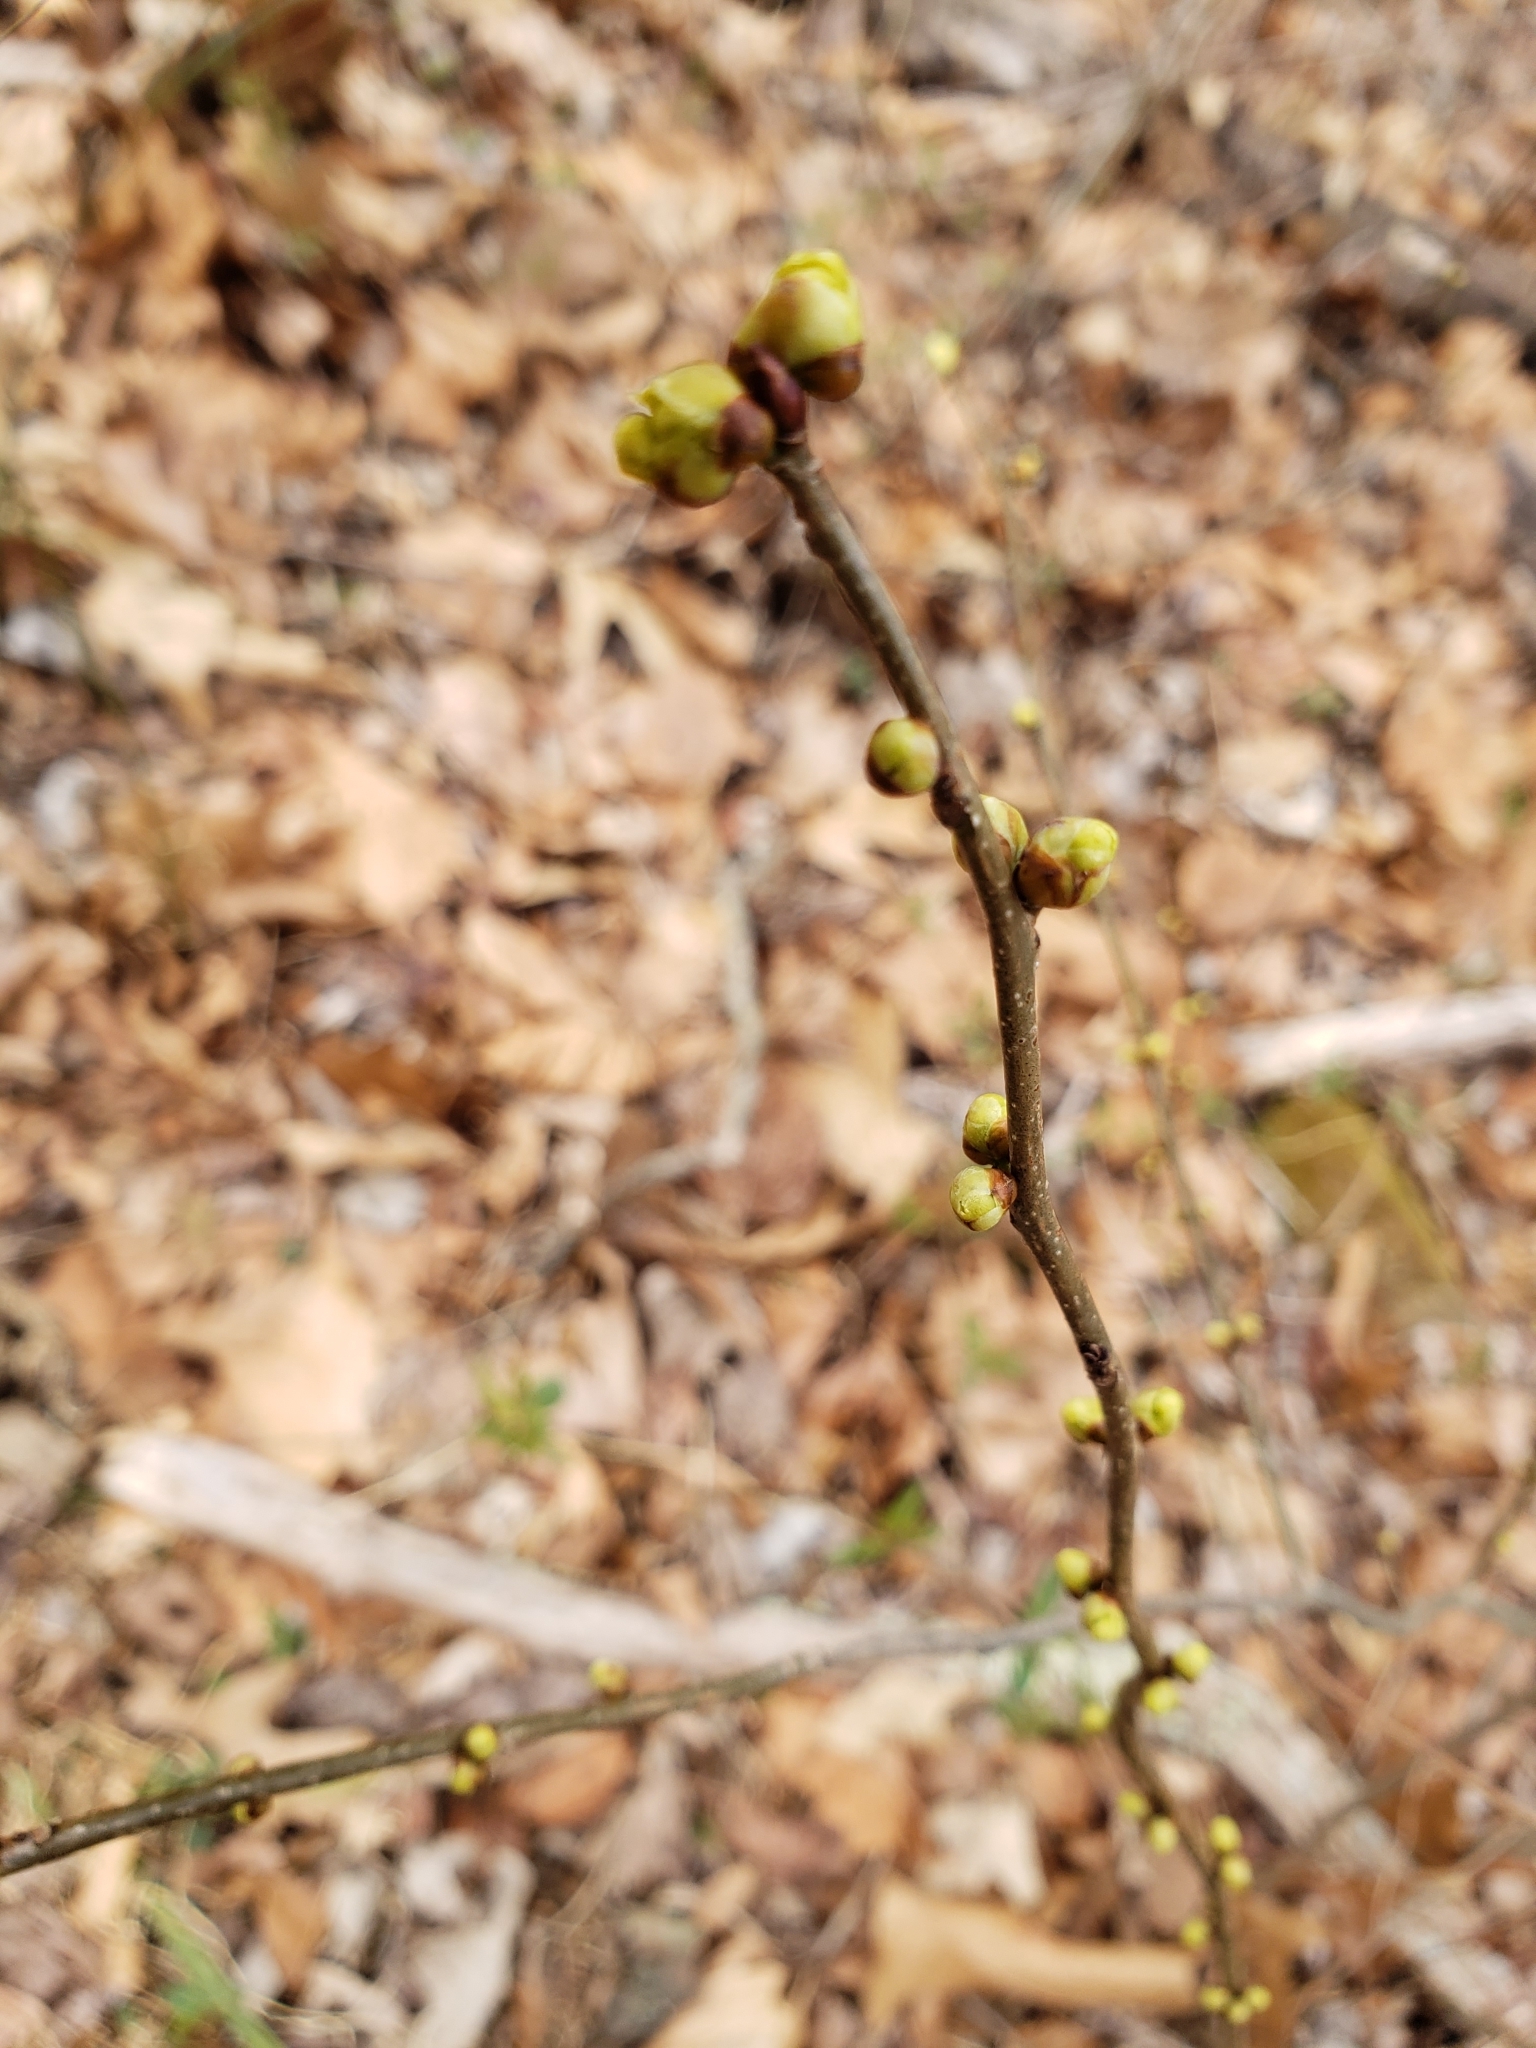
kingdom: Plantae
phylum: Tracheophyta
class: Magnoliopsida
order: Laurales
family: Lauraceae
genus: Lindera
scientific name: Lindera benzoin
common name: Spicebush
